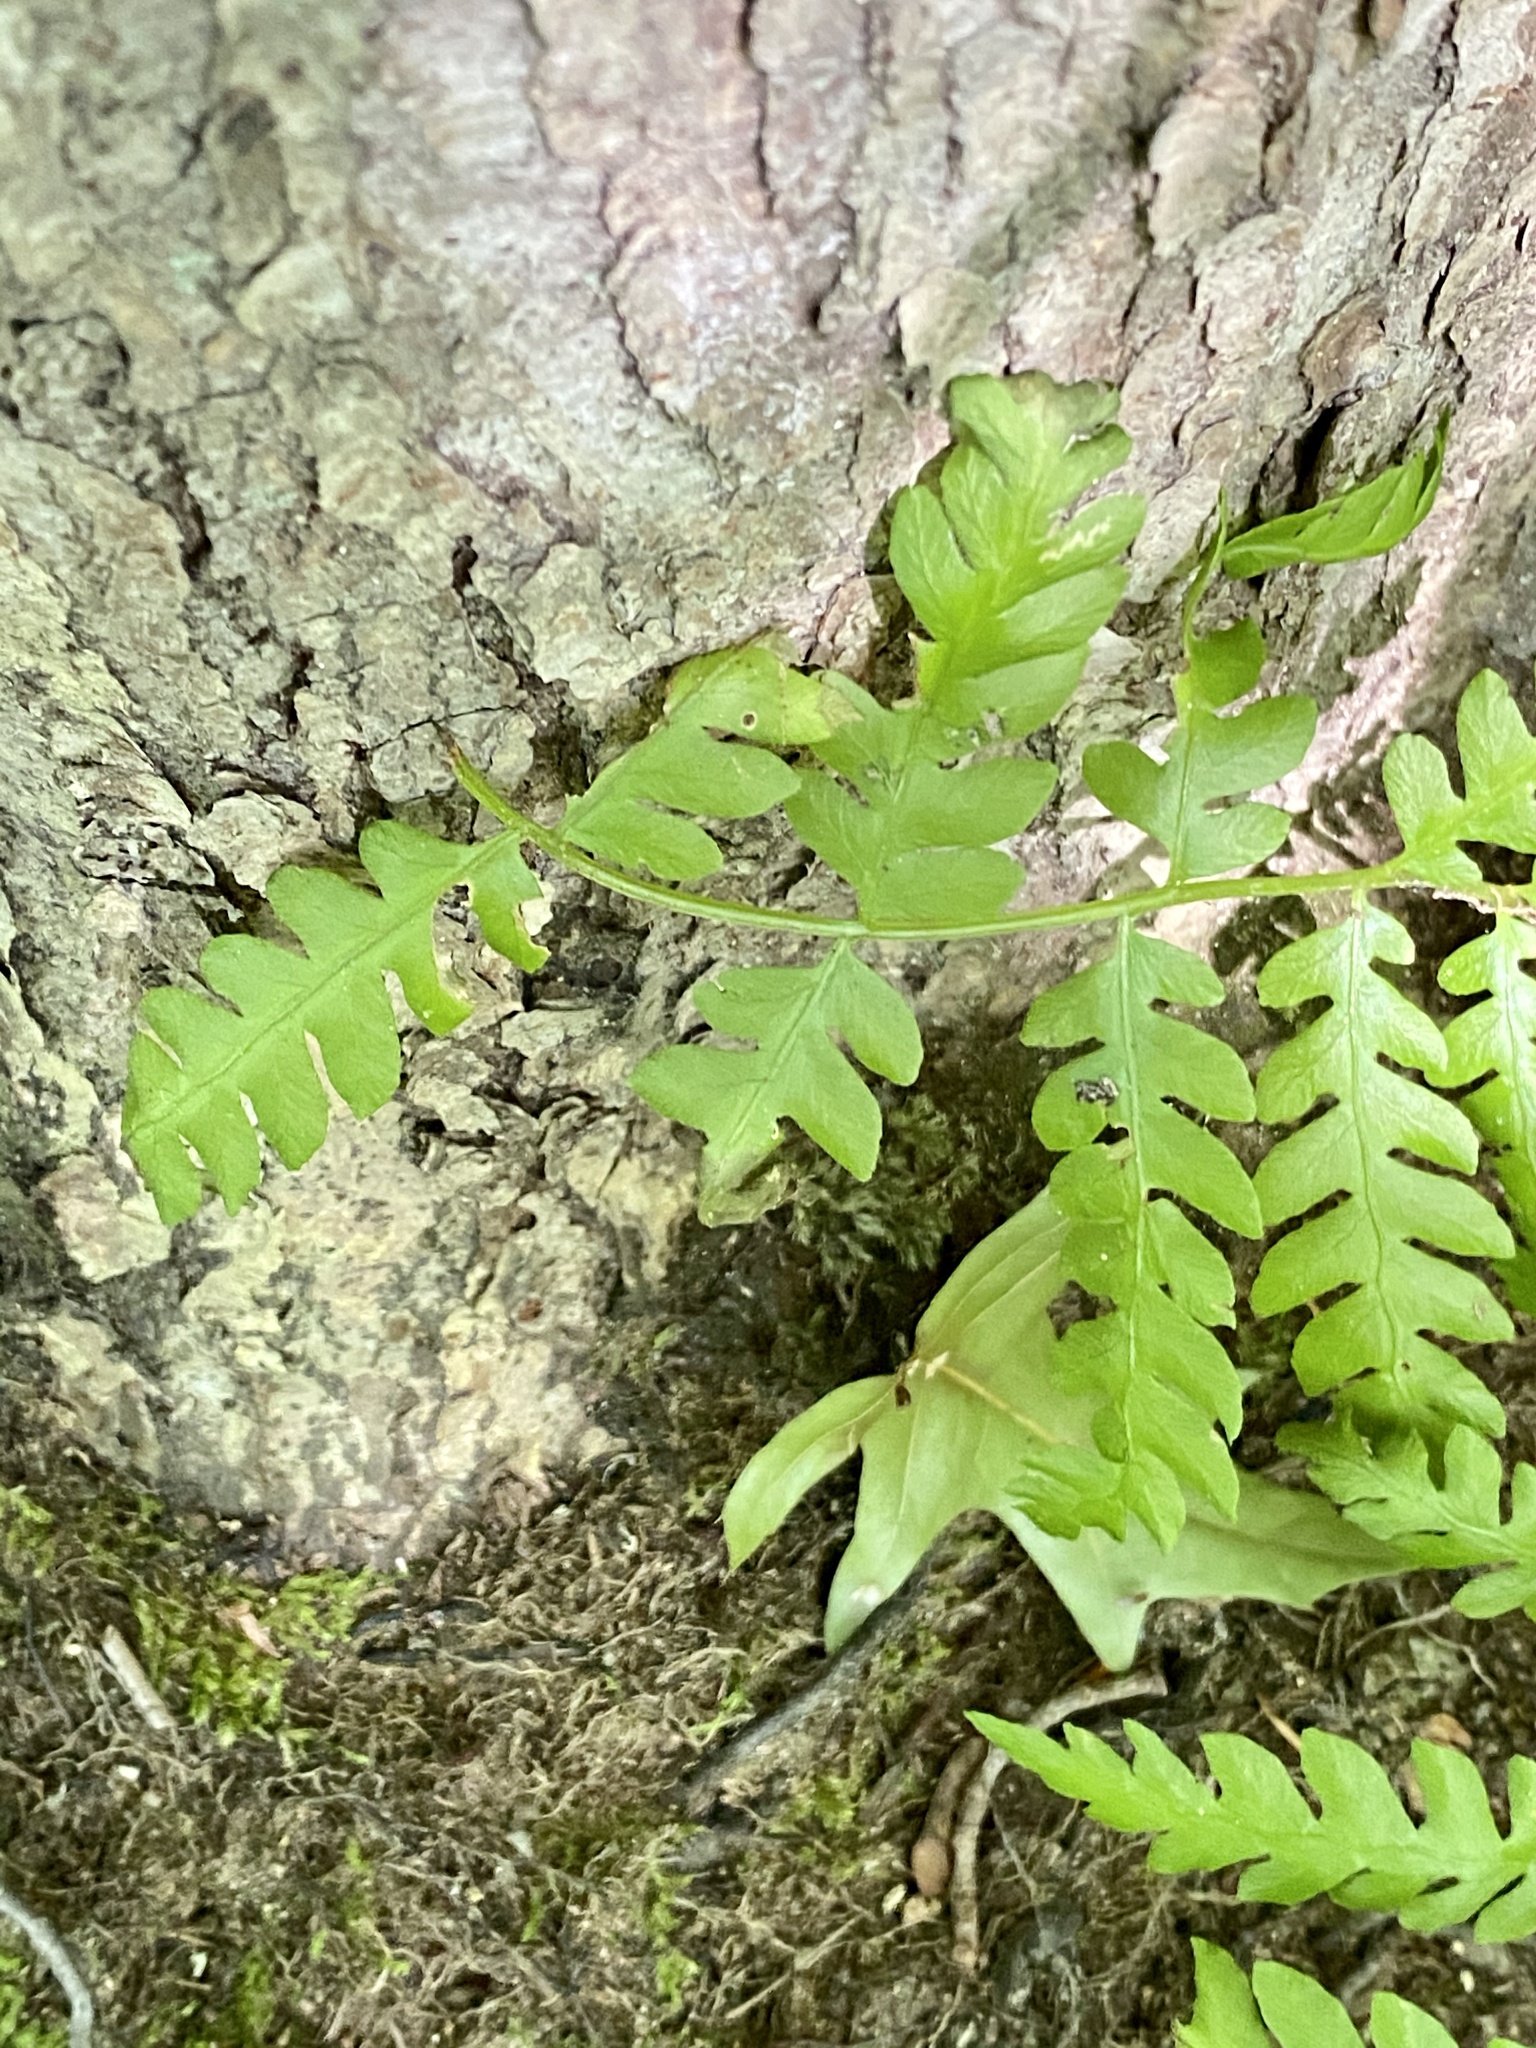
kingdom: Plantae
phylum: Tracheophyta
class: Polypodiopsida
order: Osmundales
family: Osmundaceae
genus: Osmundastrum
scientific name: Osmundastrum cinnamomeum
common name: Cinnamon fern
